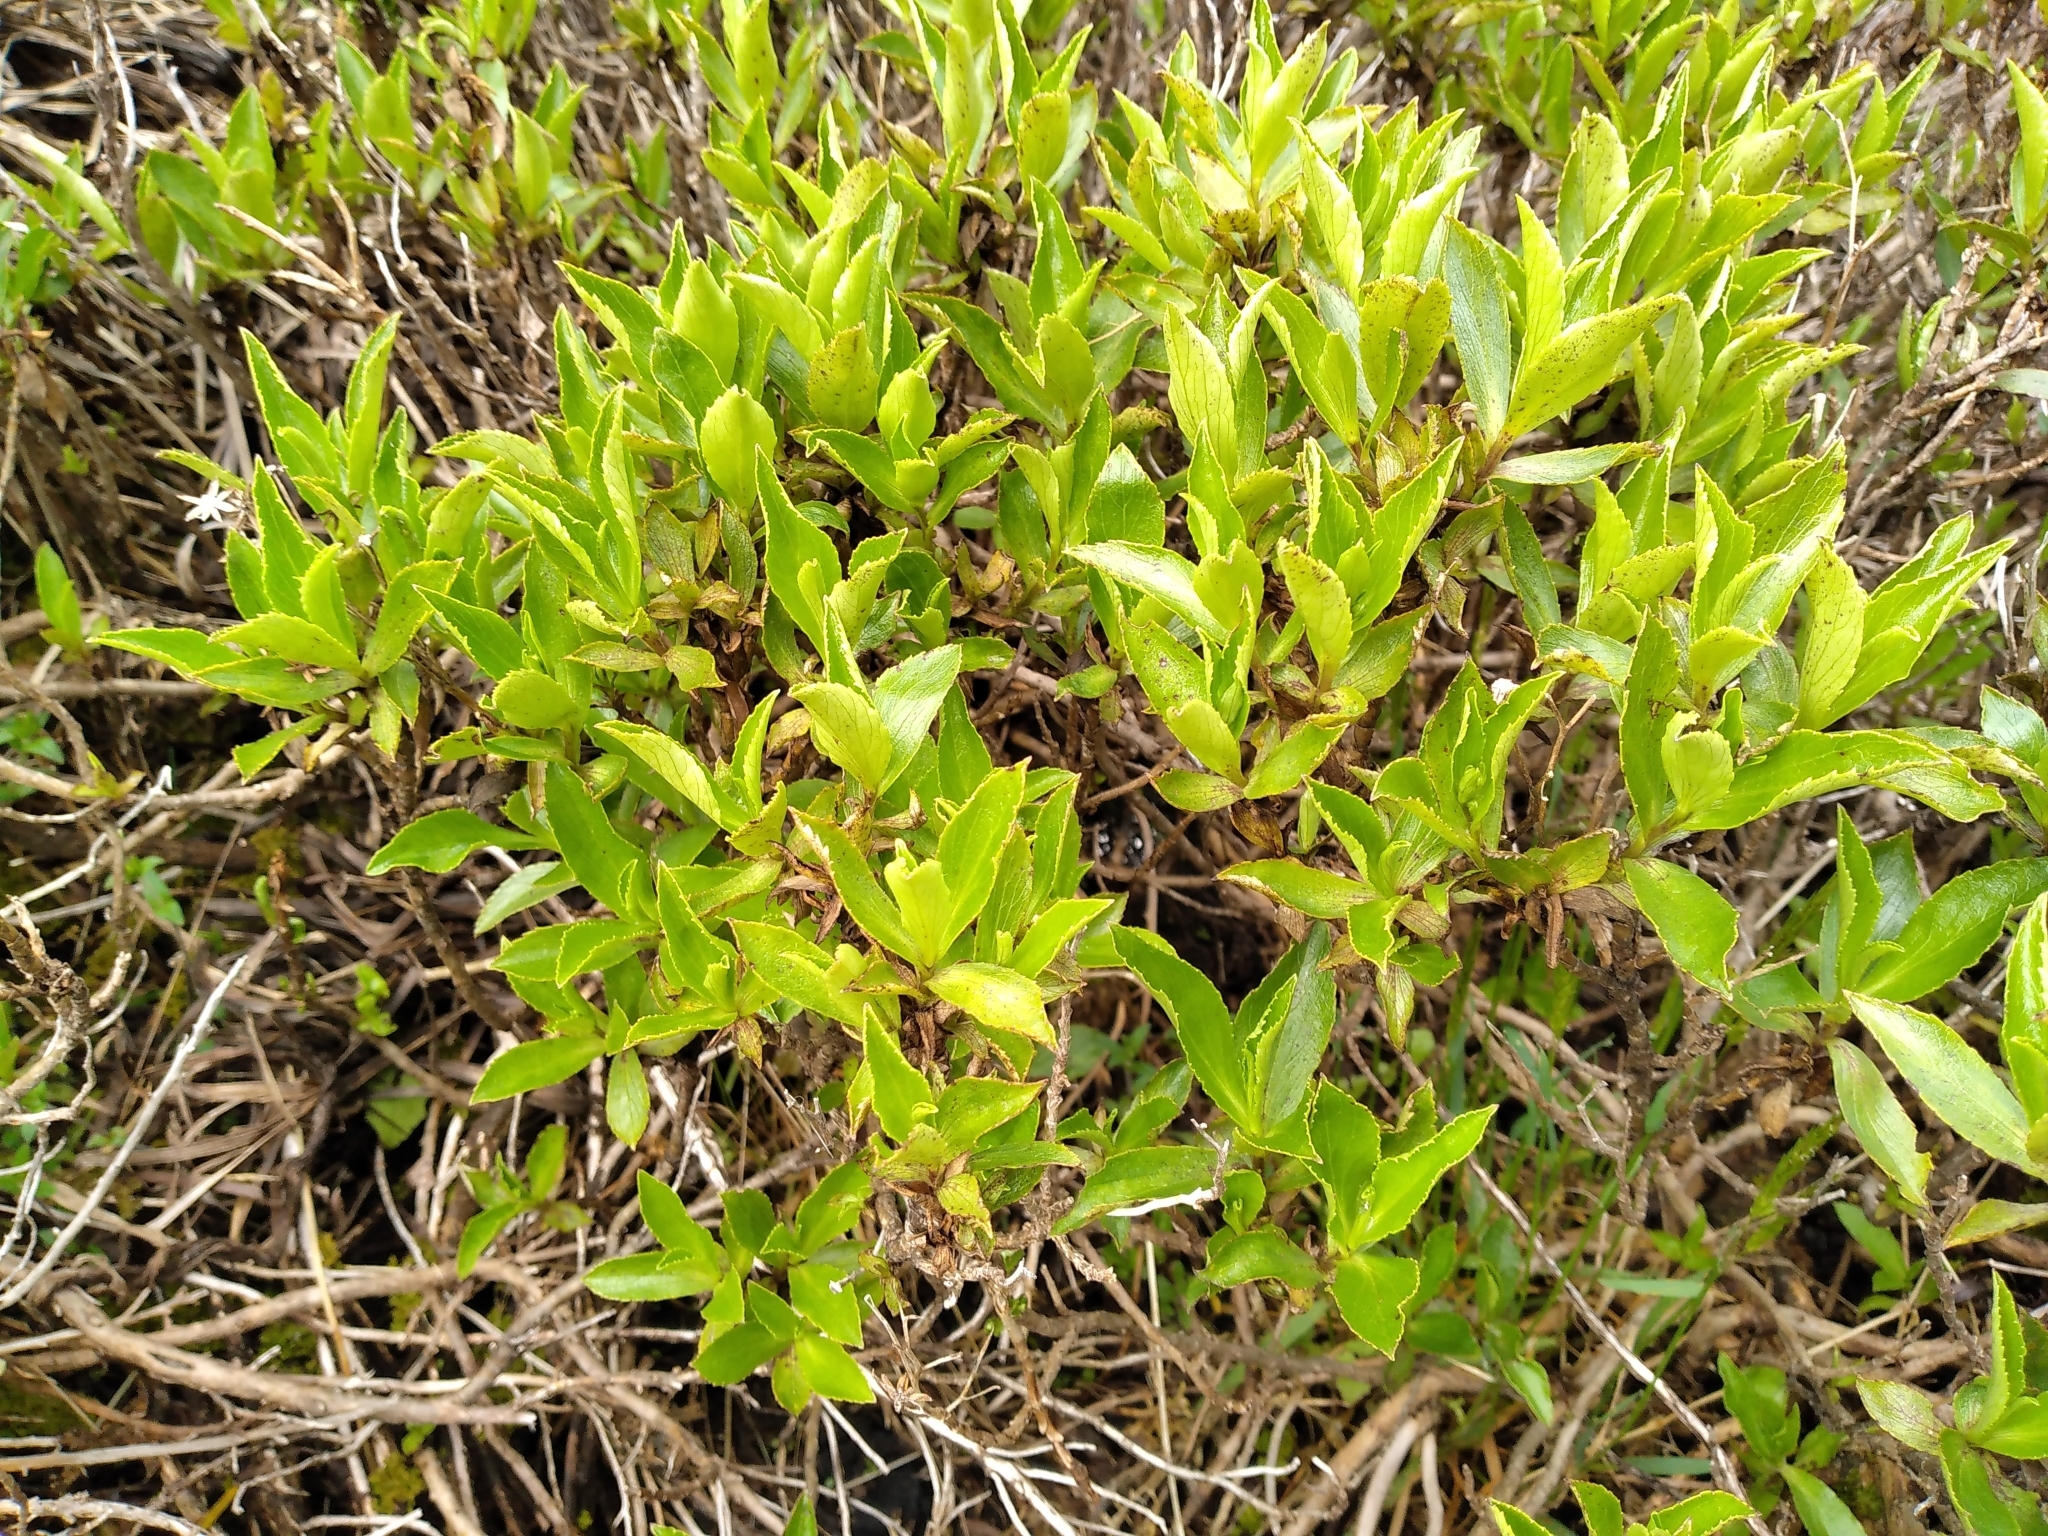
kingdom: Plantae
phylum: Tracheophyta
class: Magnoliopsida
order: Asterales
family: Asteraceae
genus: Traversia
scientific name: Traversia baccharoides
